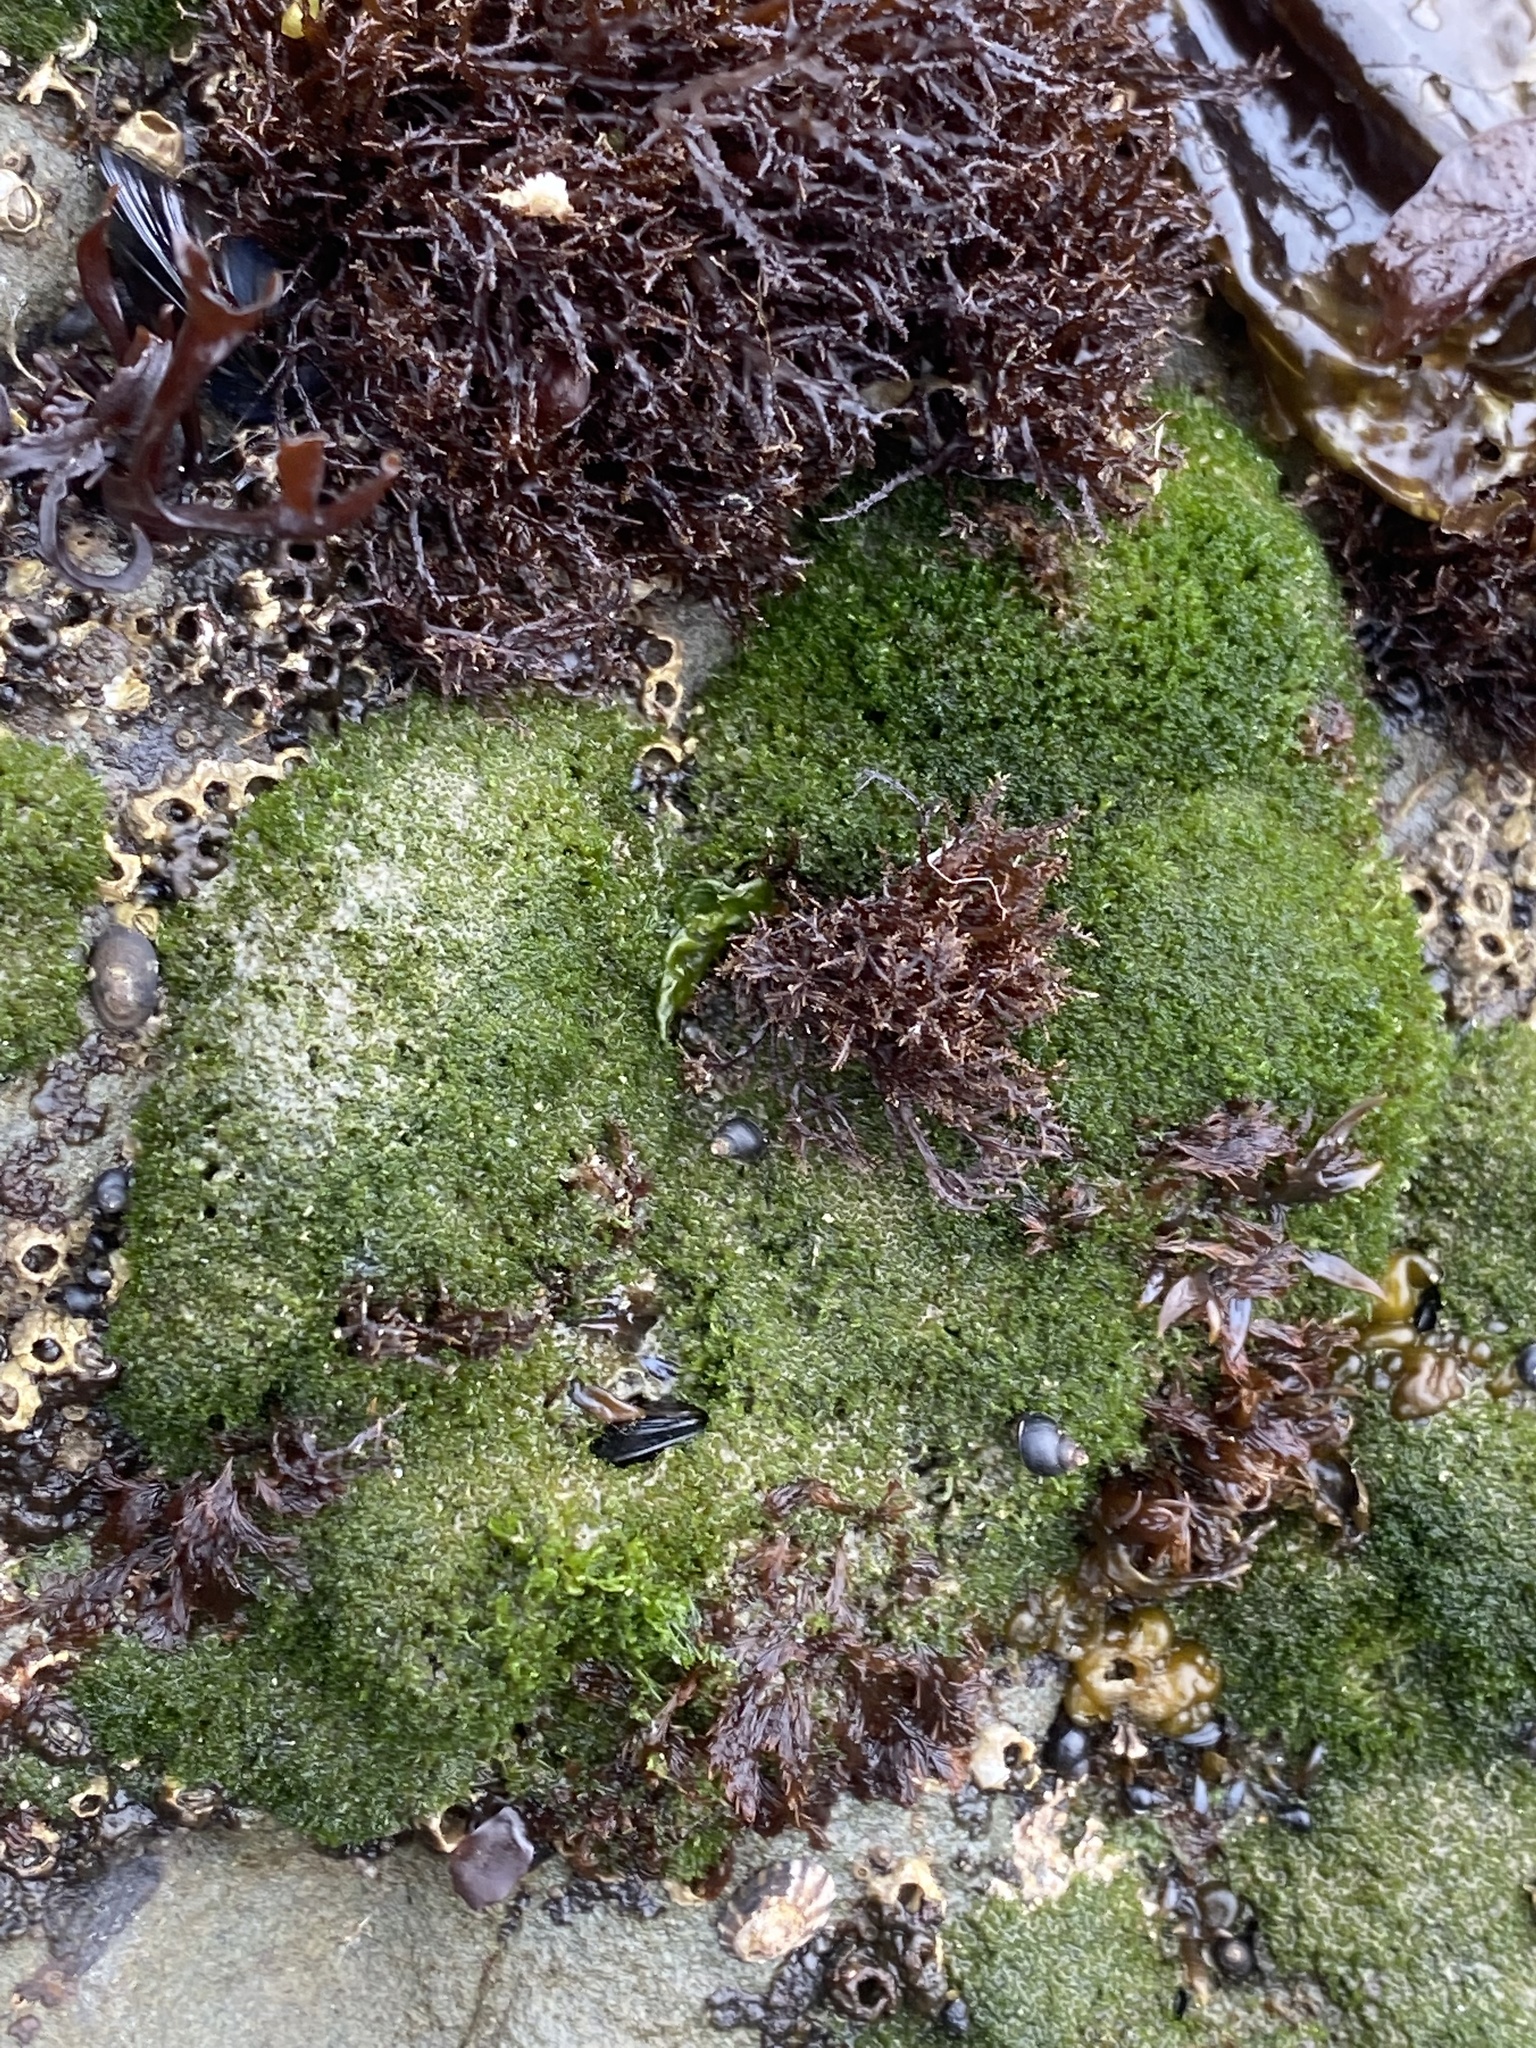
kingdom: Plantae
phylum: Chlorophyta
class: Ulvophyceae
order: Cladophorales
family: Cladophoraceae
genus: Cladophora
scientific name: Cladophora columbiana
